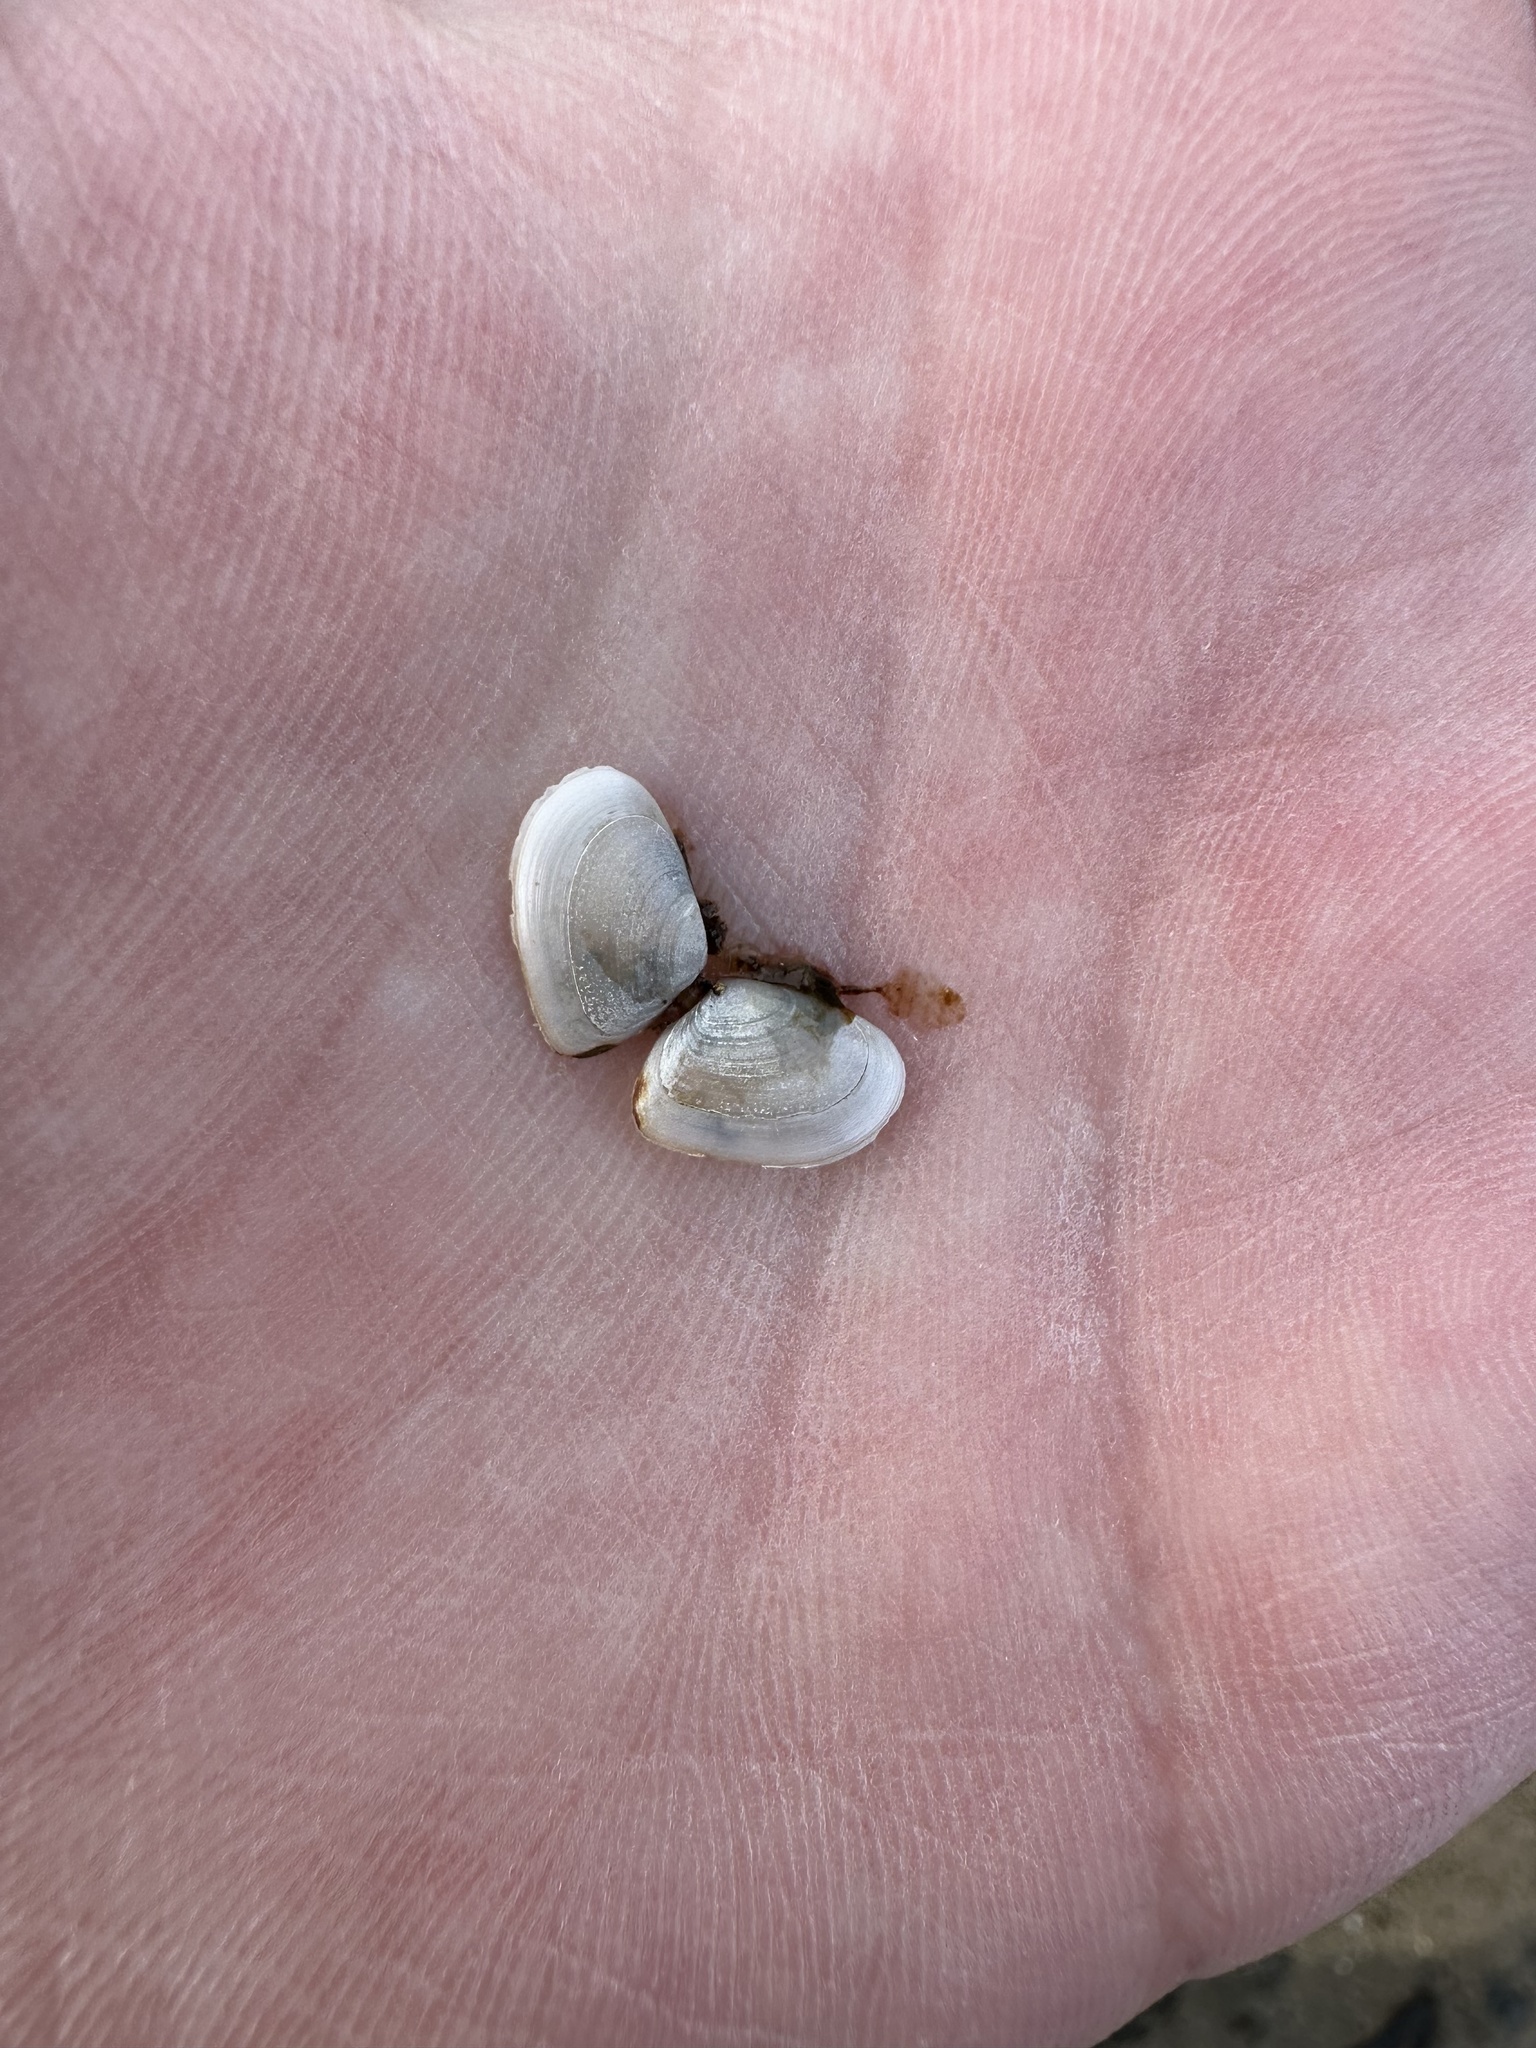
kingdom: Animalia
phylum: Mollusca
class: Bivalvia
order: Cardiida
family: Tellinidae
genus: Ameritella
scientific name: Ameritella agilis
